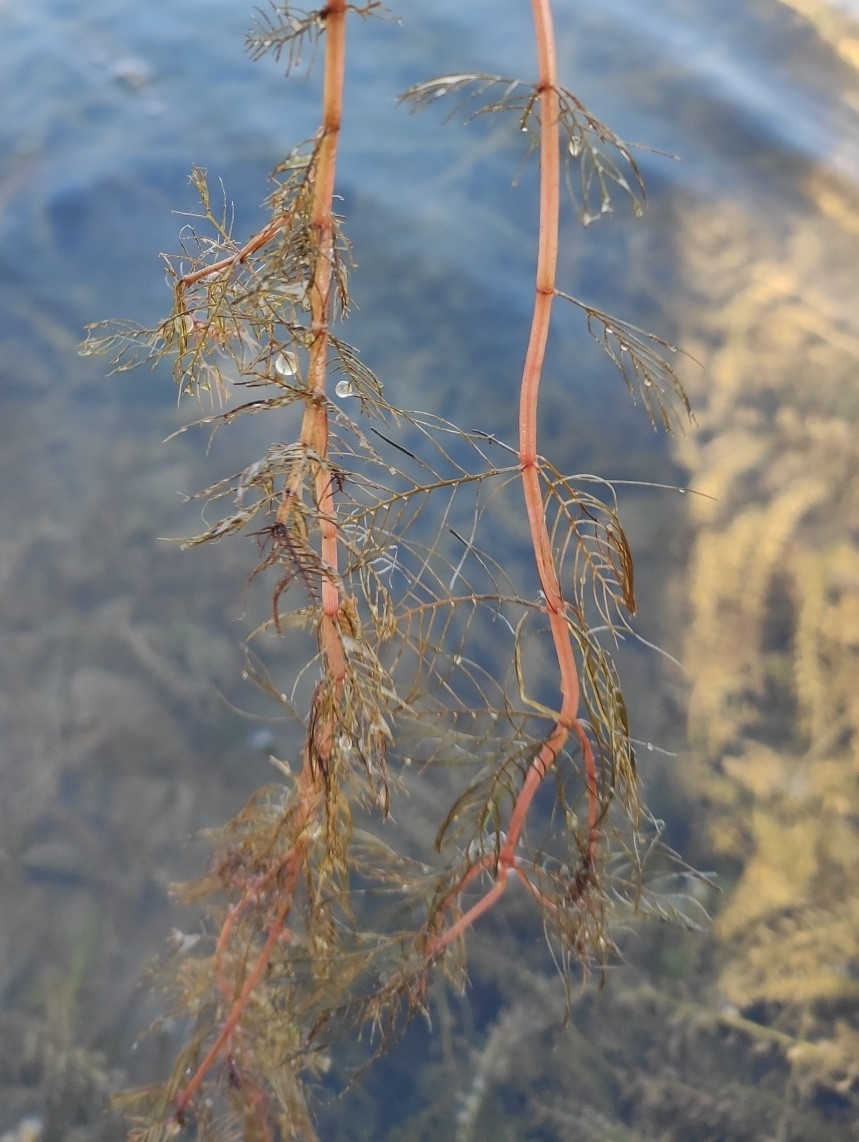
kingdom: Plantae
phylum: Tracheophyta
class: Magnoliopsida
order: Saxifragales
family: Haloragaceae
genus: Myriophyllum
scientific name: Myriophyllum sibiricum
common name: Siberian water-milfoil
